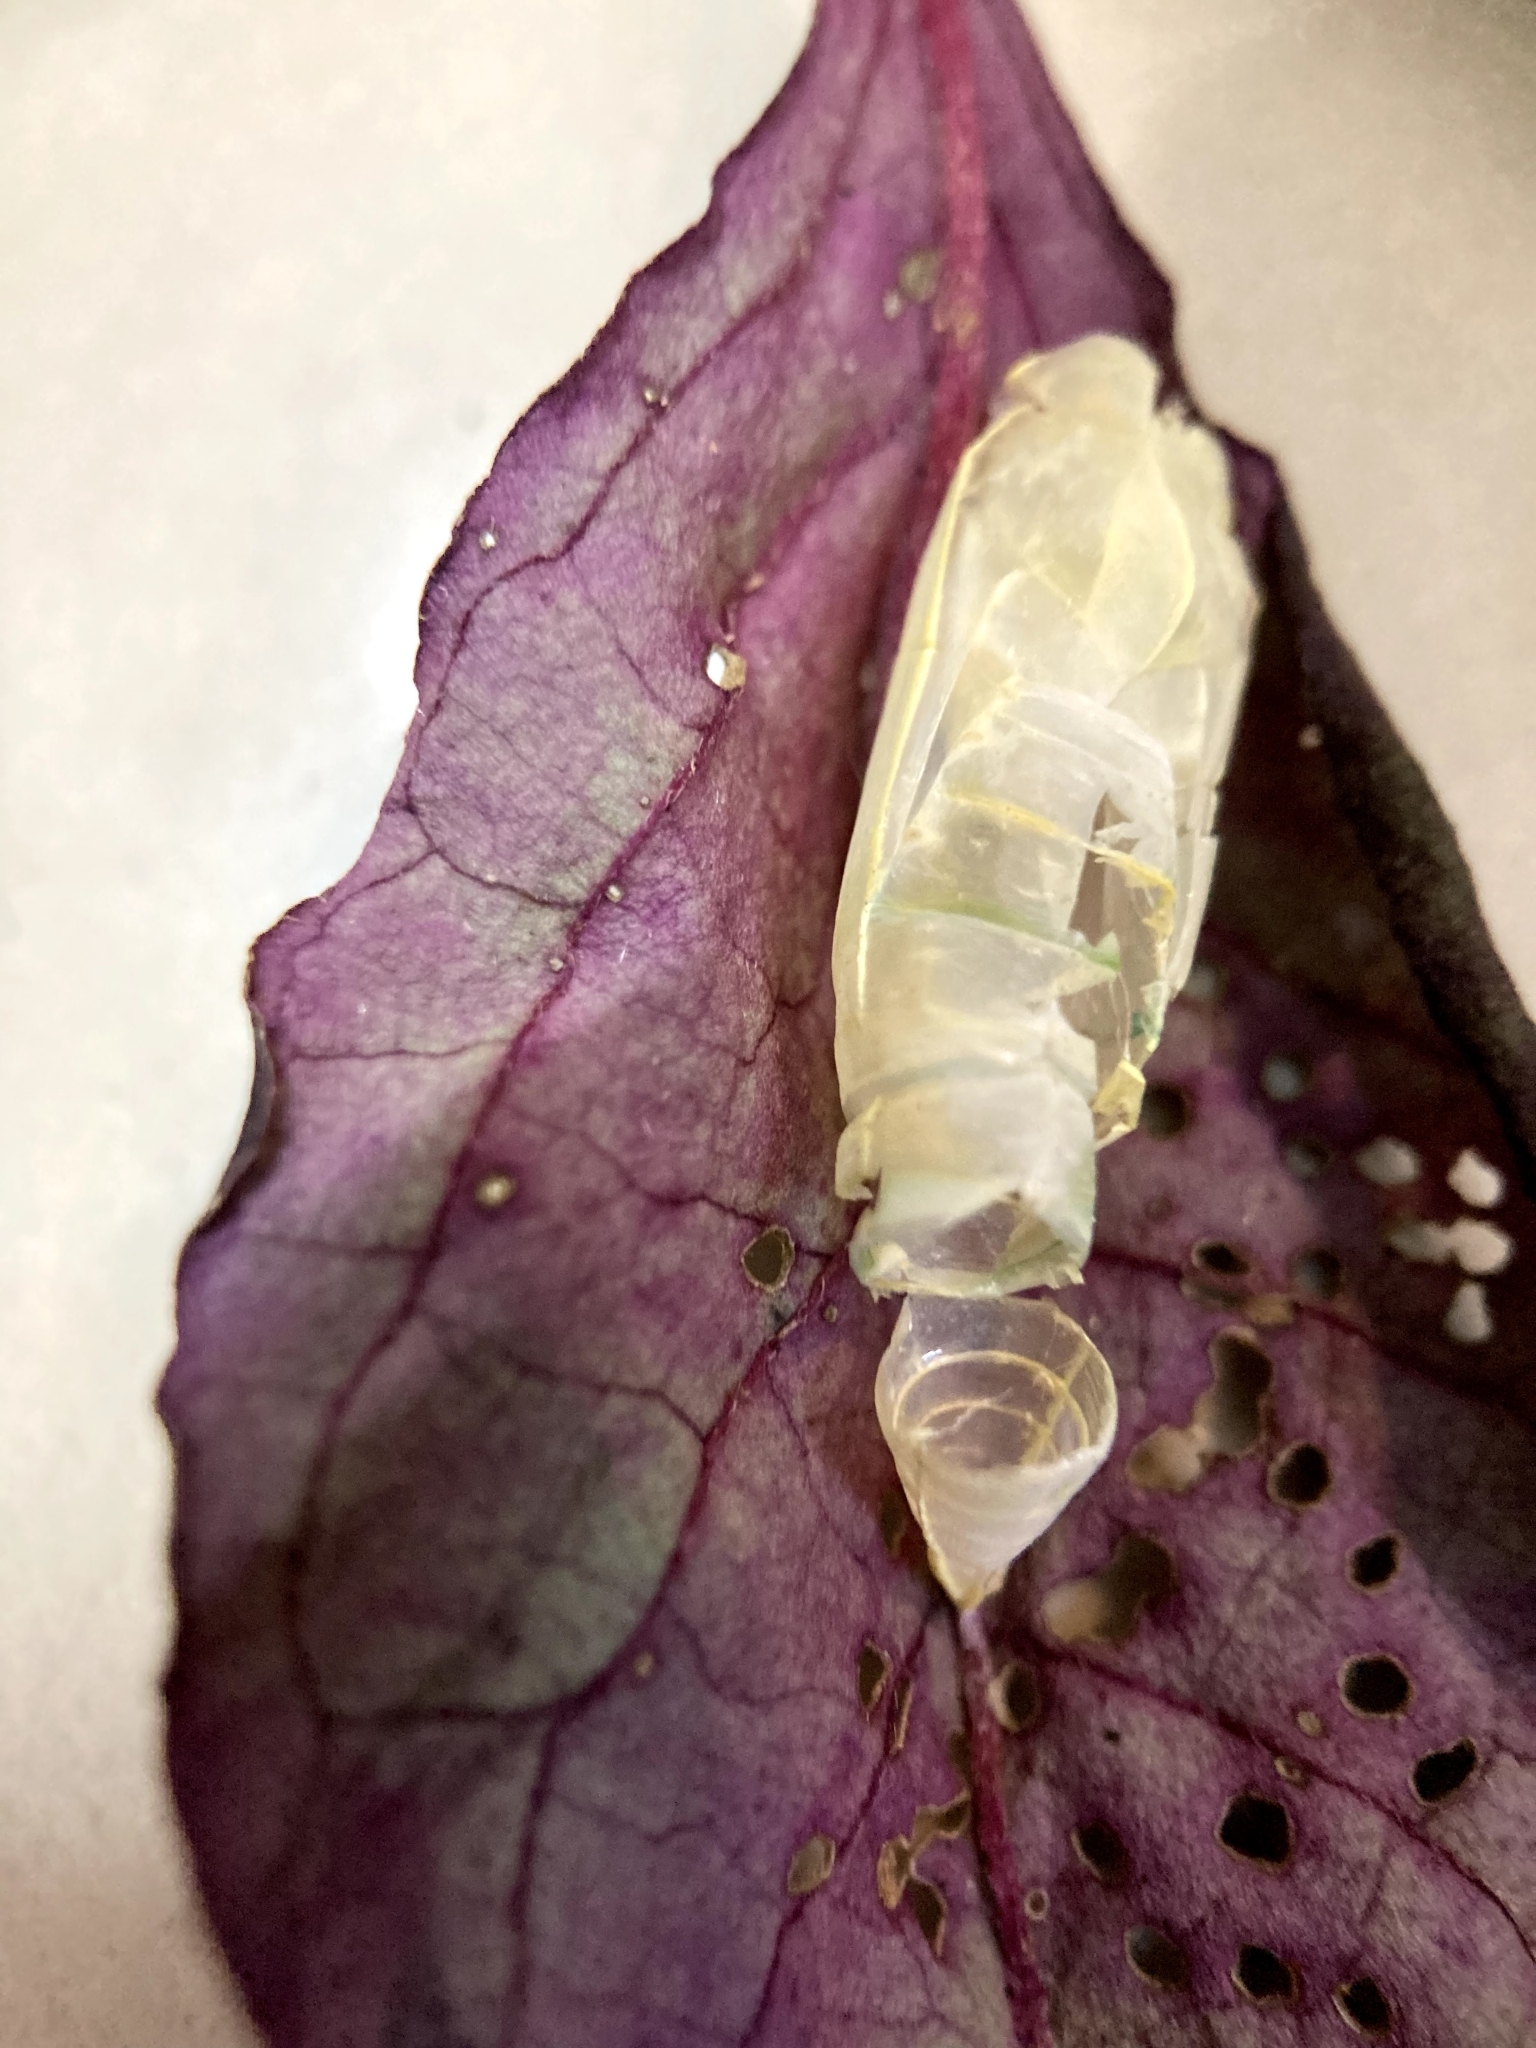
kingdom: Animalia
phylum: Arthropoda
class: Insecta
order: Lepidoptera
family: Pieridae
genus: Catopsilia
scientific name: Catopsilia pomona
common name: Common emigrant
